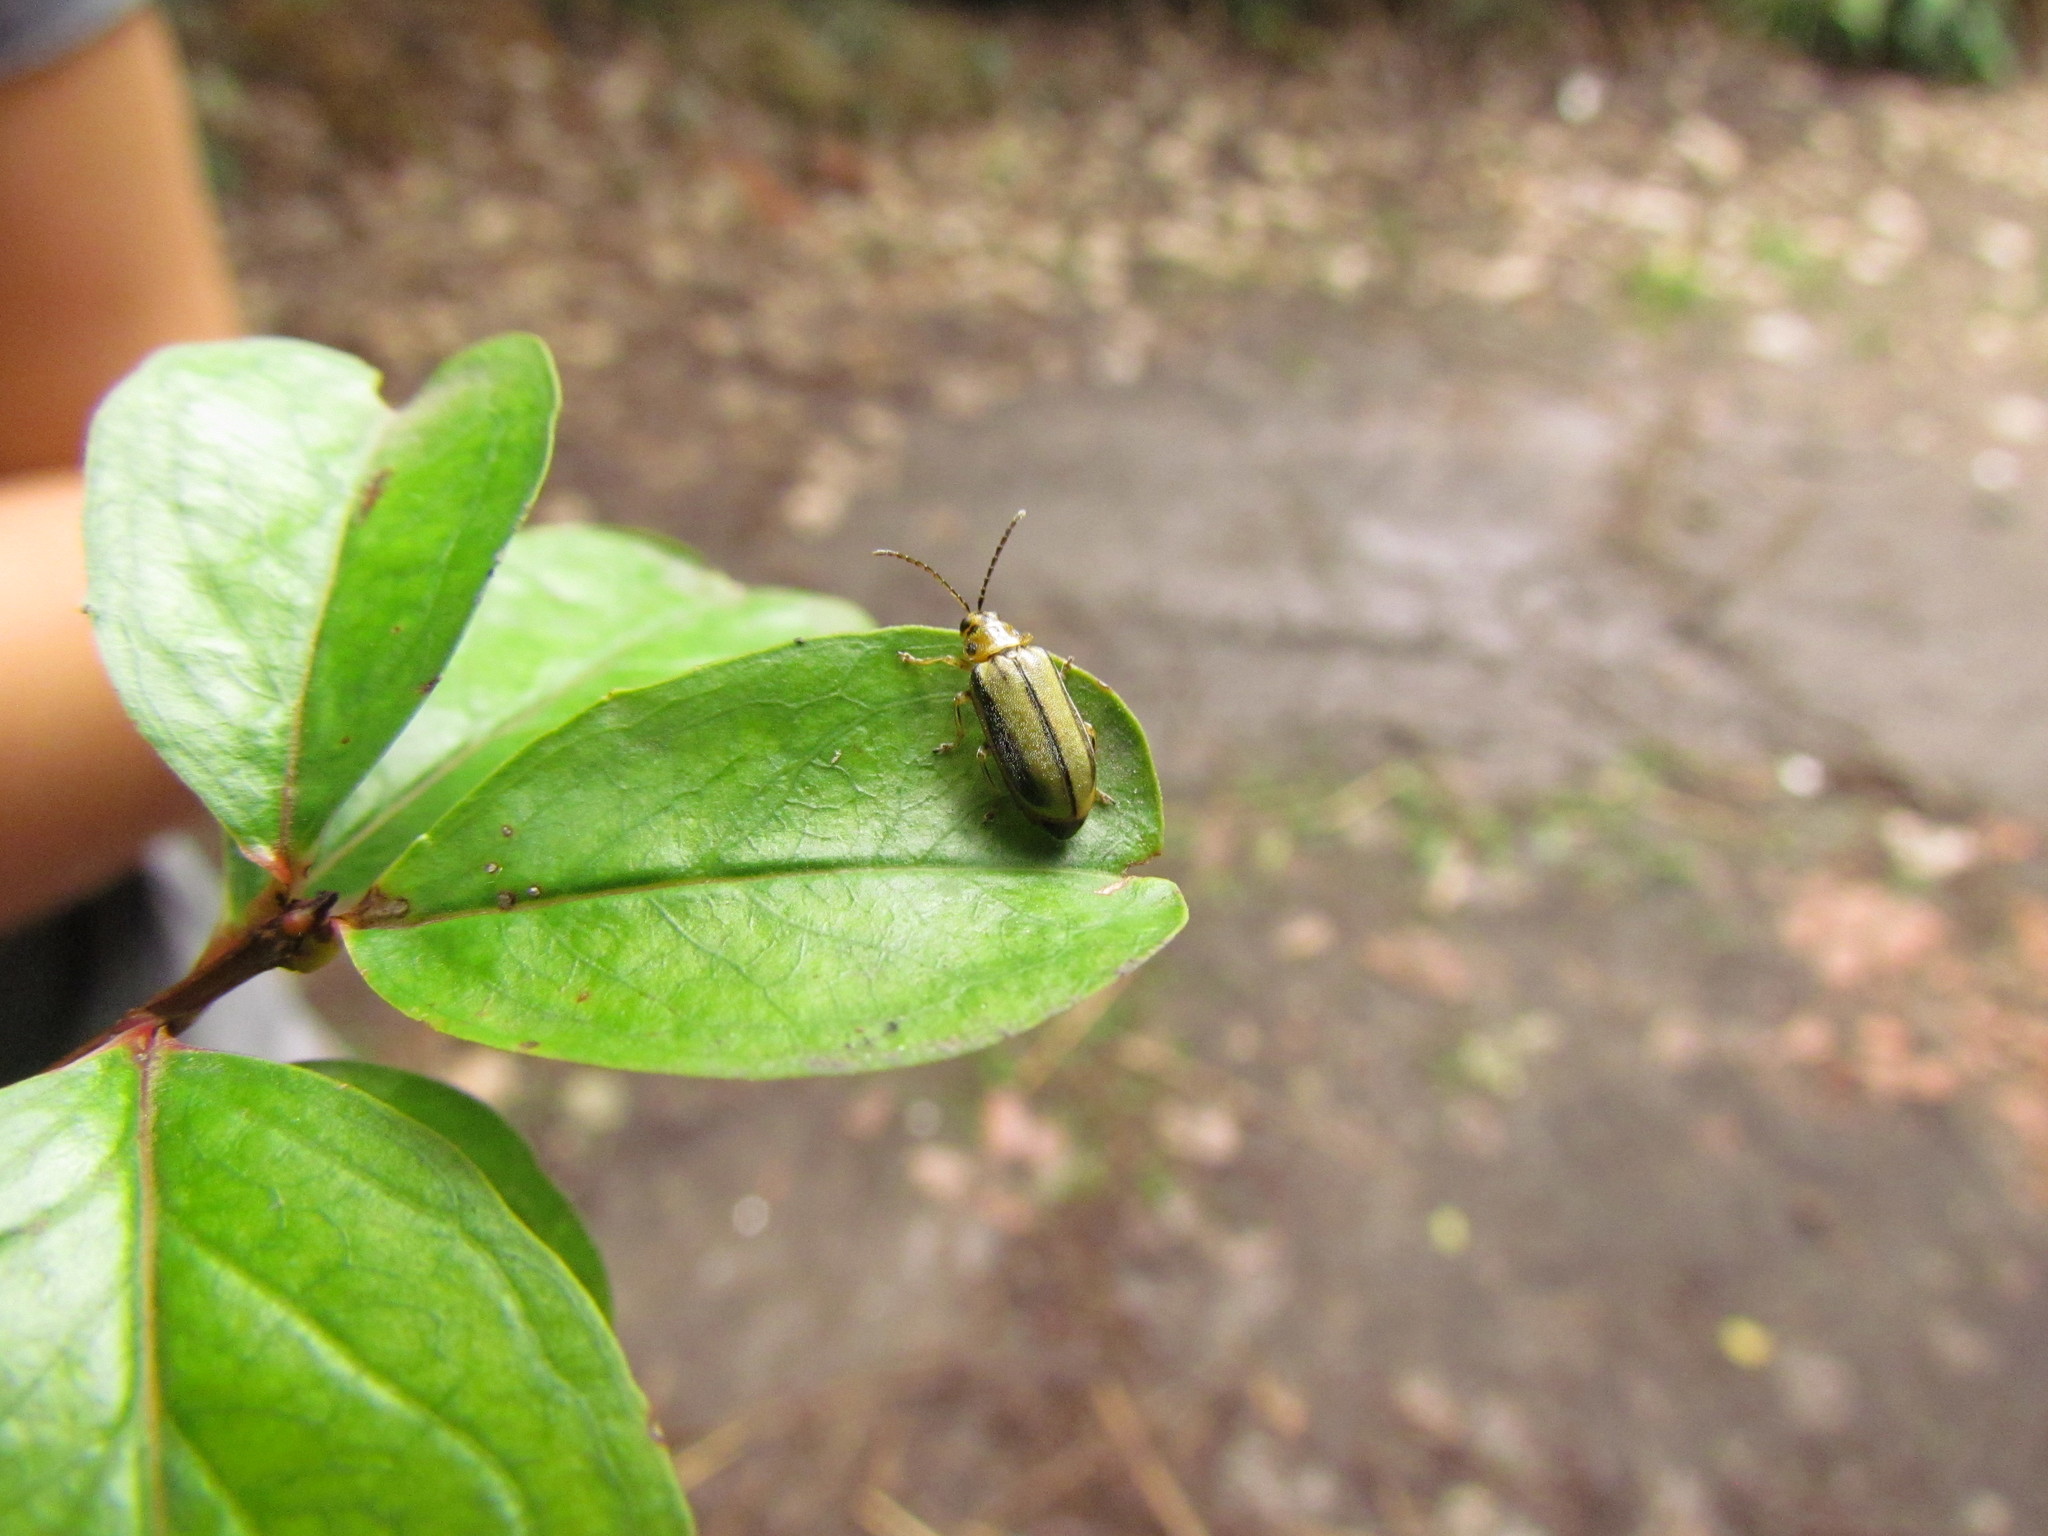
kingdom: Animalia
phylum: Arthropoda
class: Insecta
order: Coleoptera
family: Chrysomelidae
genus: Xanthogaleruca
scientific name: Xanthogaleruca luteola
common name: Elm leaf beetle
